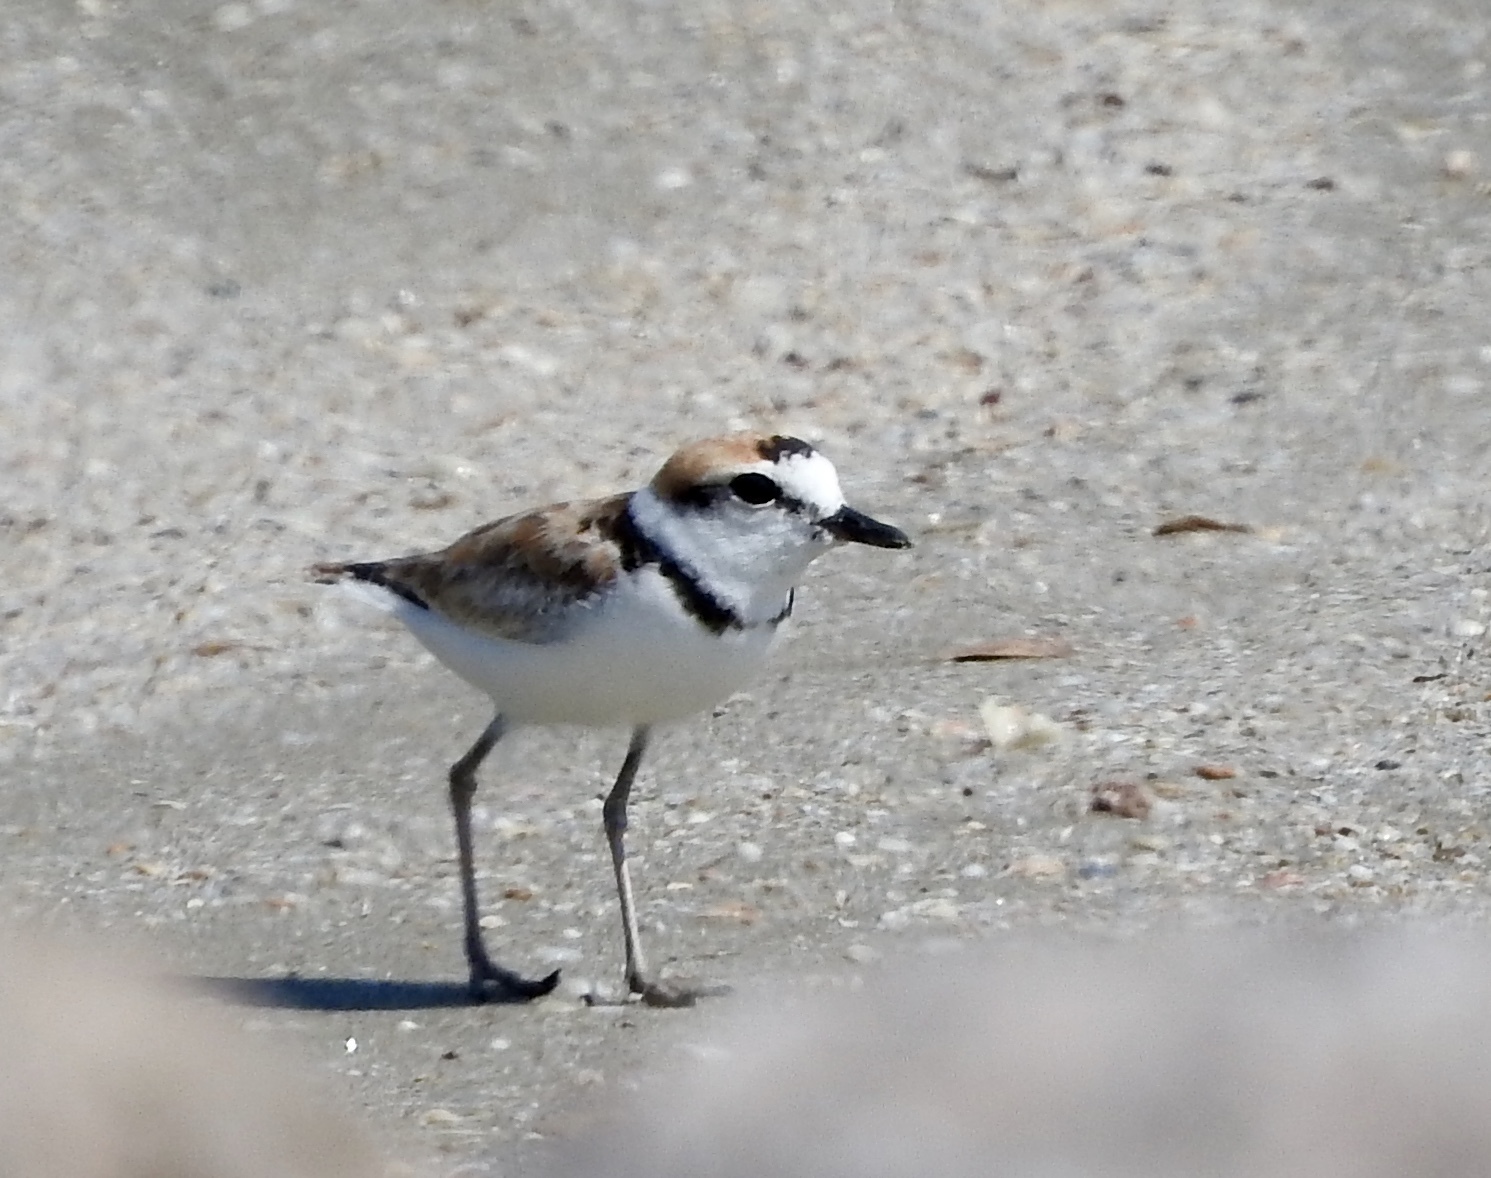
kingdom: Animalia
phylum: Chordata
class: Aves
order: Charadriiformes
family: Charadriidae
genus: Anarhynchus
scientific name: Anarhynchus
